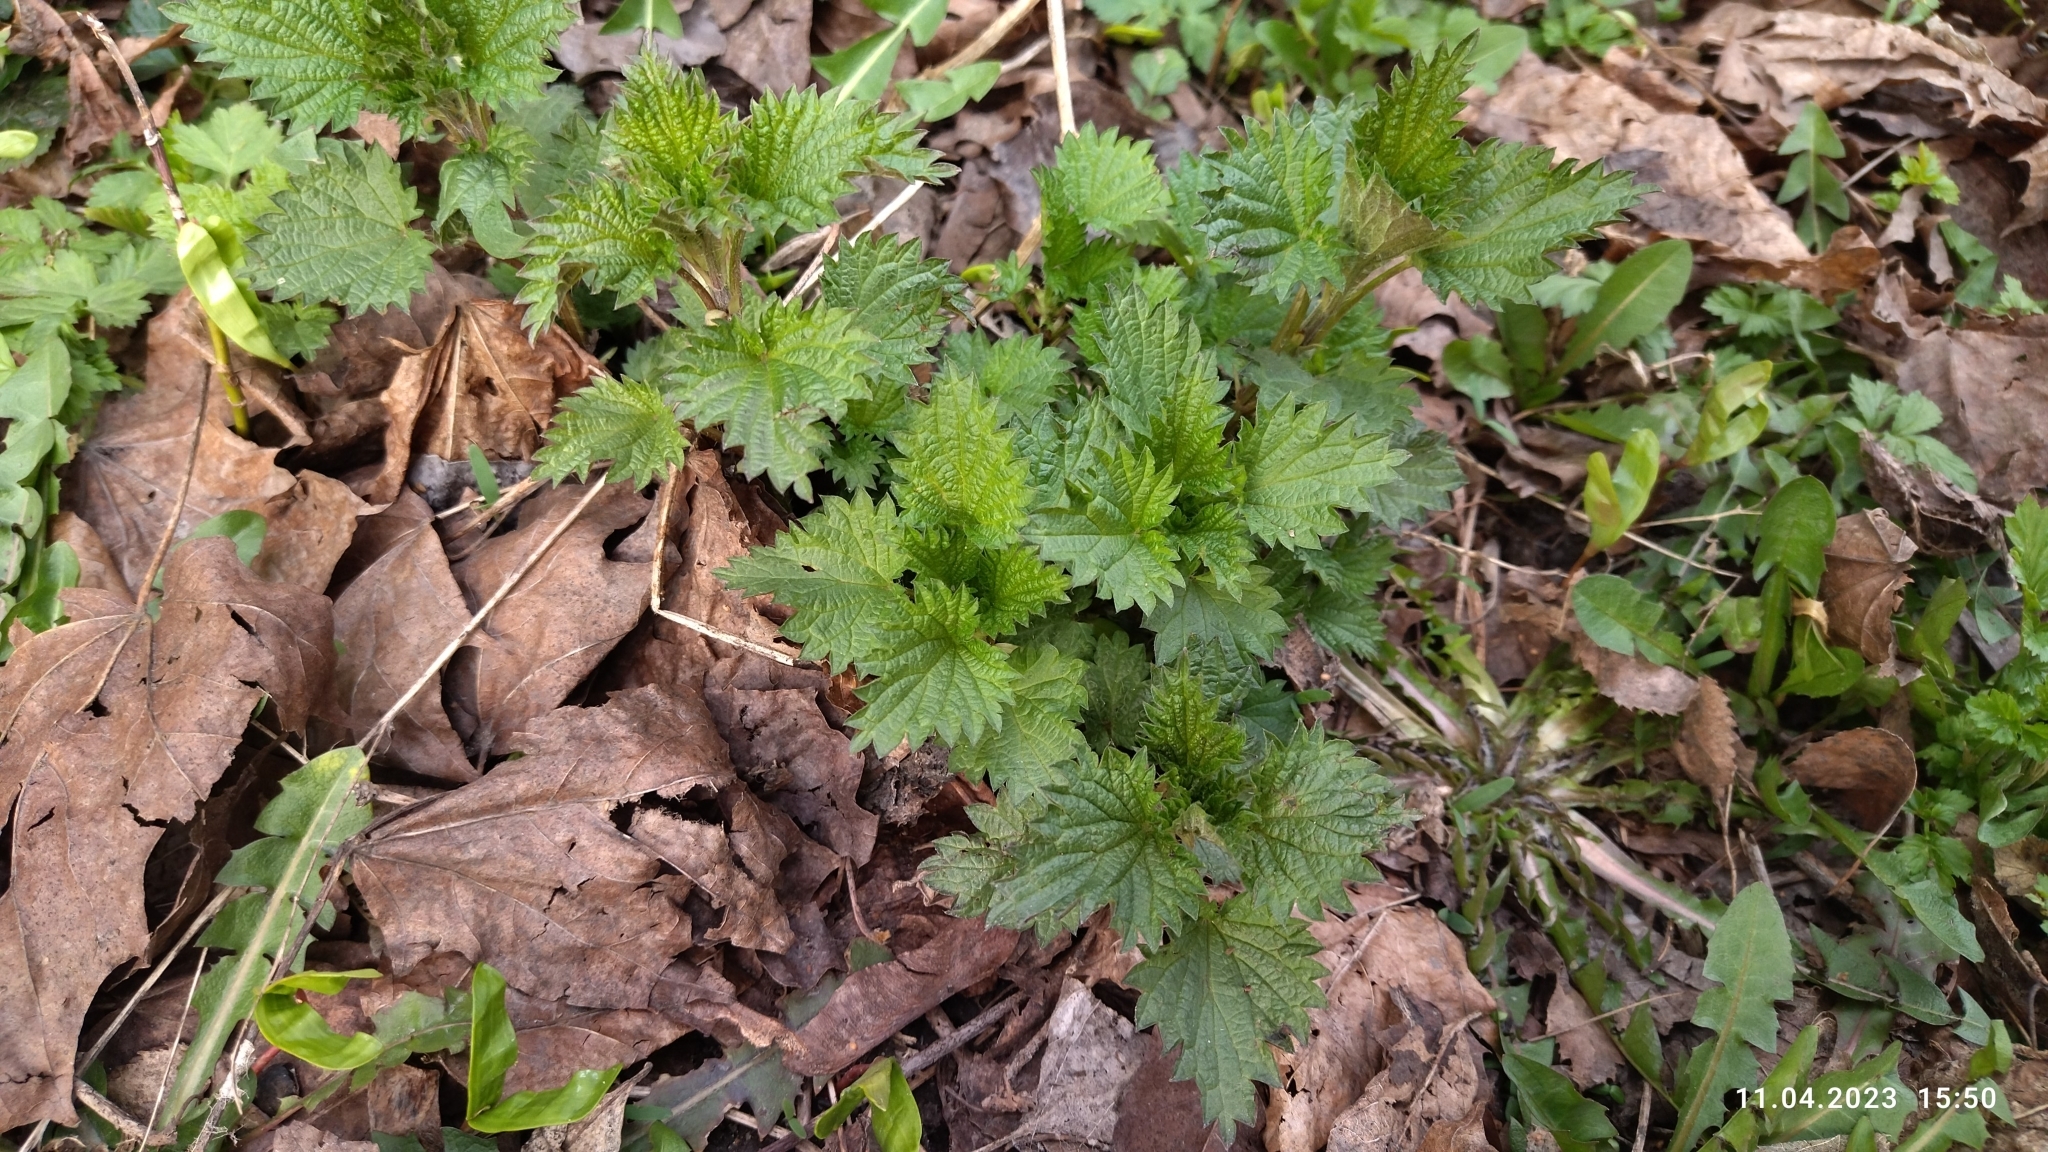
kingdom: Plantae
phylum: Tracheophyta
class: Magnoliopsida
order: Rosales
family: Urticaceae
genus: Urtica
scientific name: Urtica dioica
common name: Common nettle
